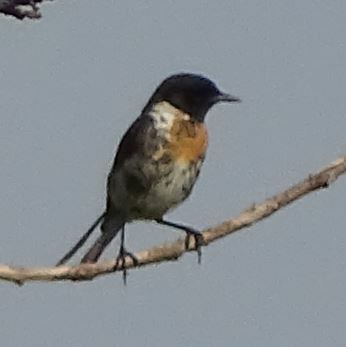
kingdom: Animalia
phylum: Chordata
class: Aves
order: Passeriformes
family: Muscicapidae
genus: Saxicola
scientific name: Saxicola rubicola
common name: European stonechat
